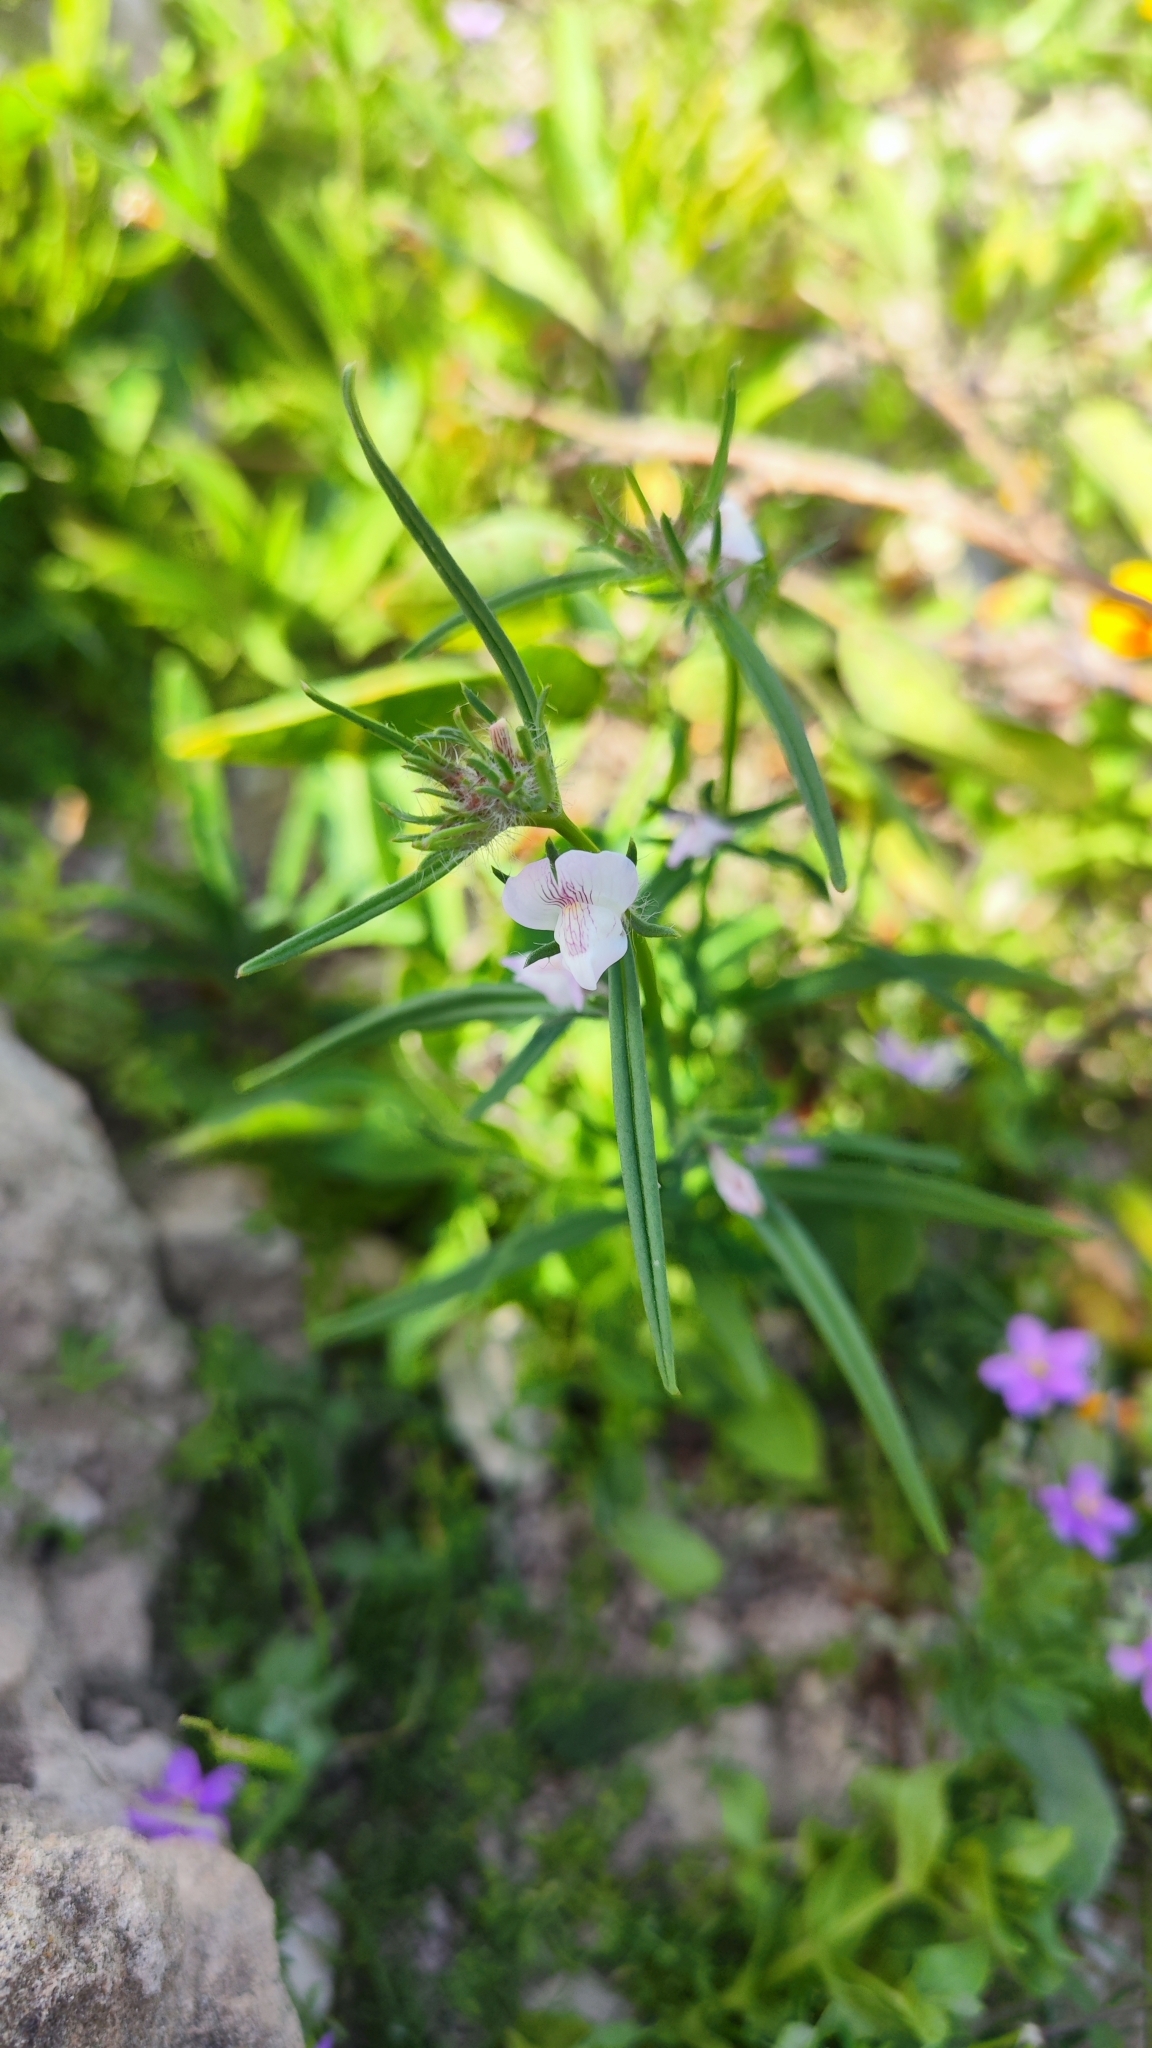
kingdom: Plantae
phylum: Tracheophyta
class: Magnoliopsida
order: Lamiales
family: Plantaginaceae
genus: Misopates
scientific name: Misopates microcarpum
